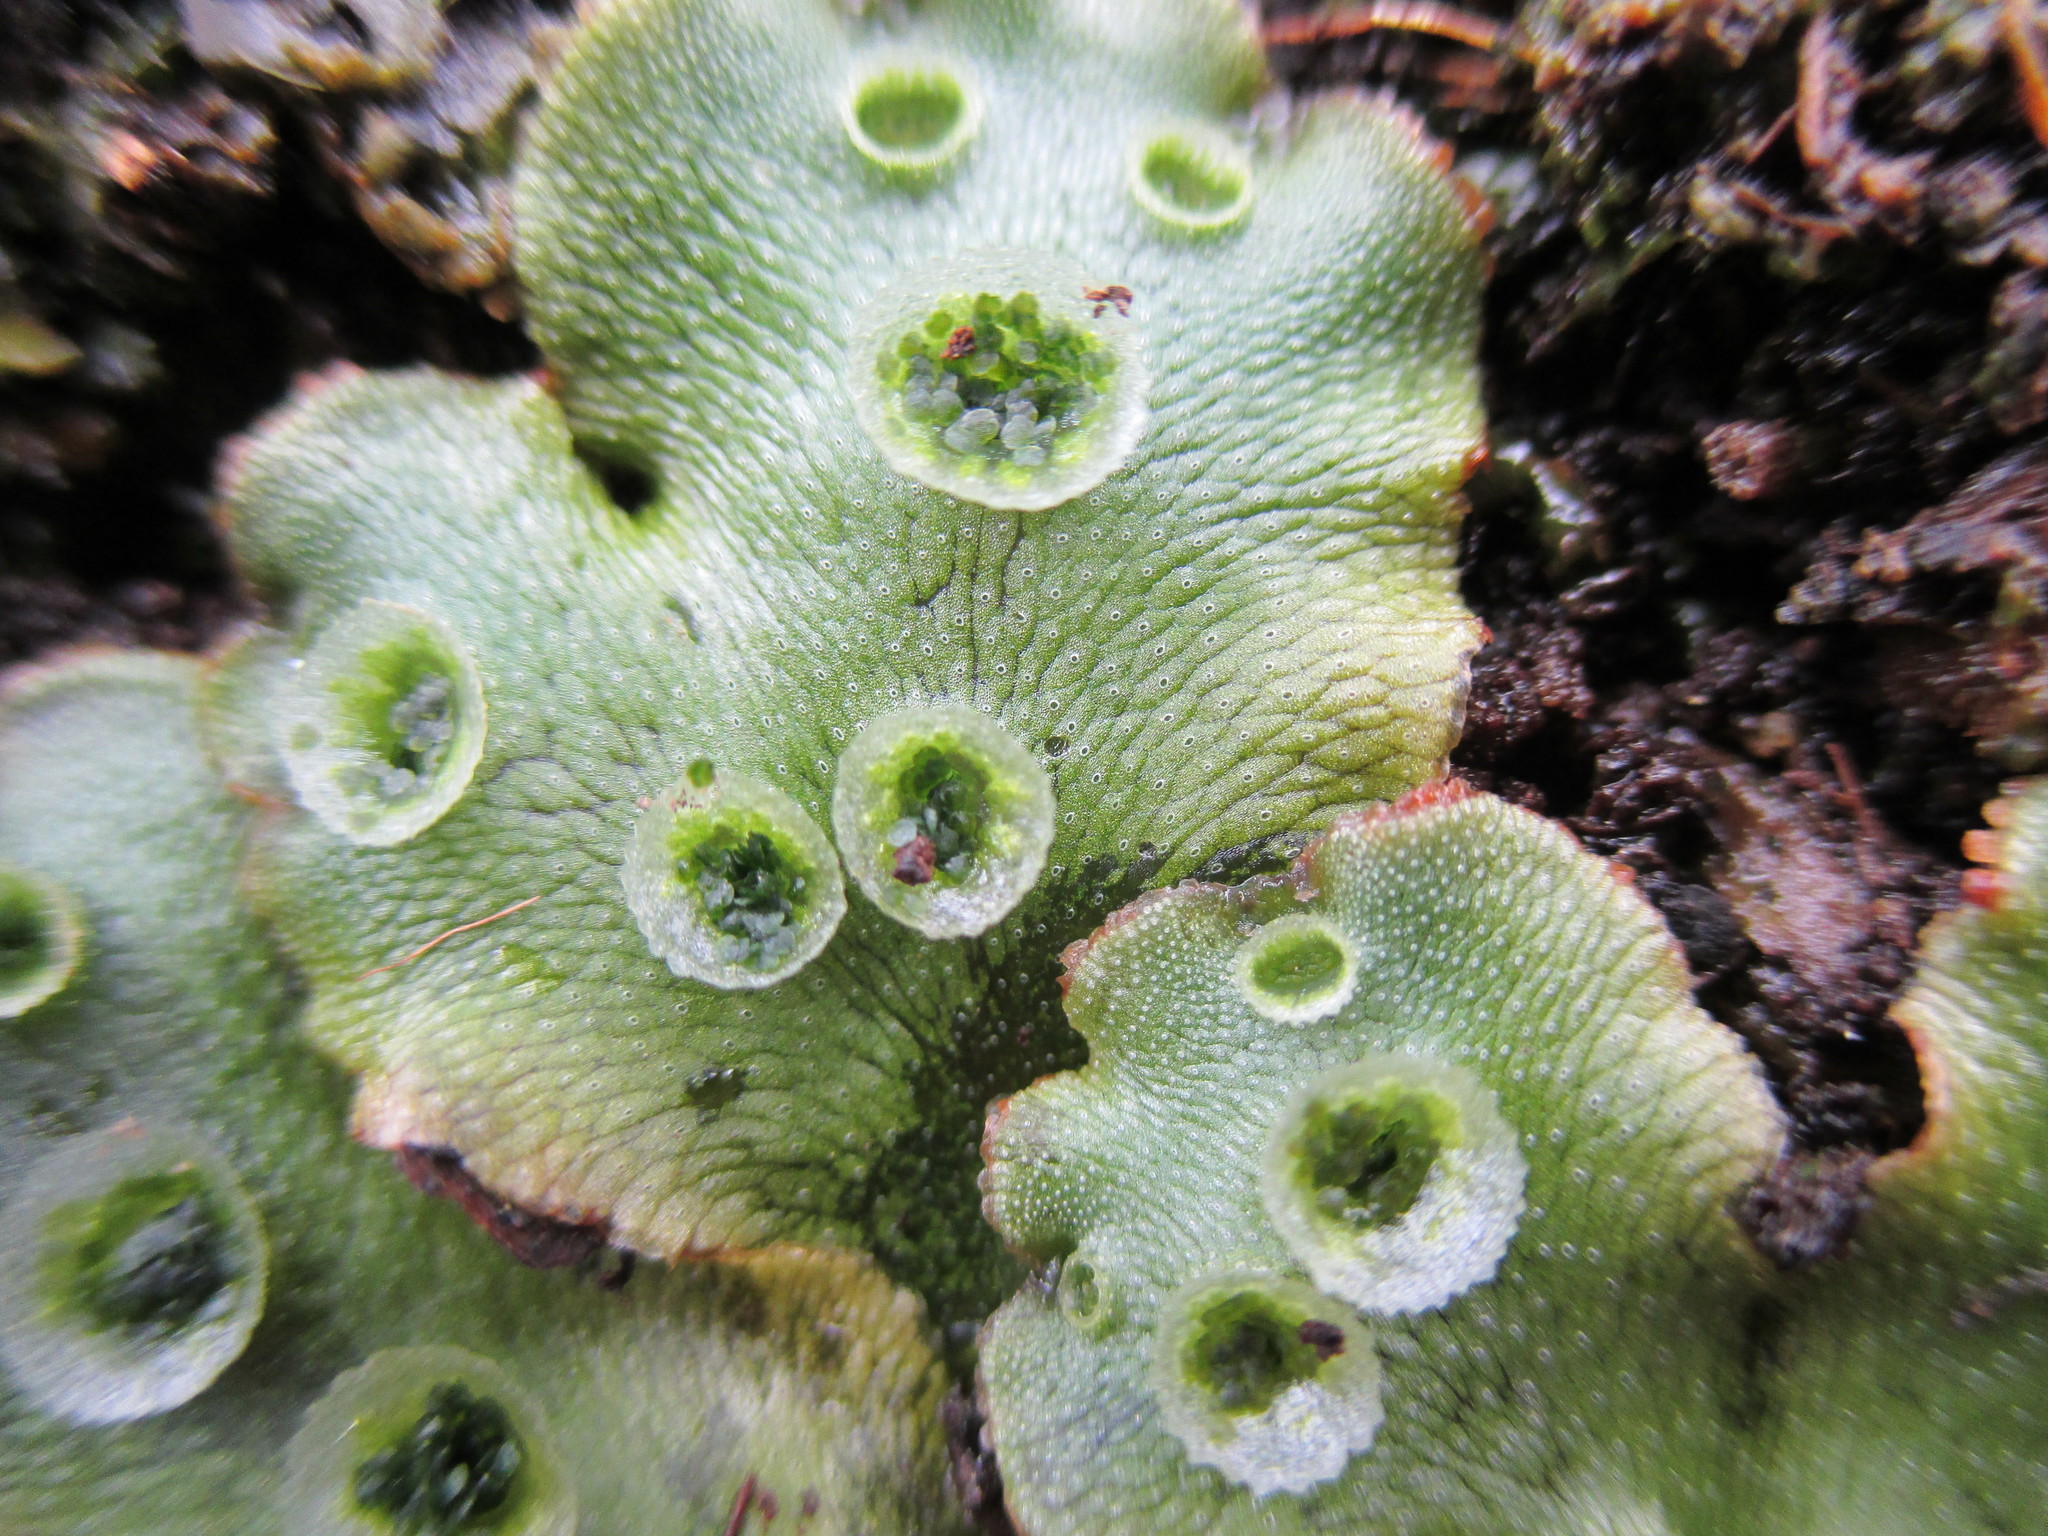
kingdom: Plantae
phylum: Marchantiophyta
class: Marchantiopsida
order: Marchantiales
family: Marchantiaceae
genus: Marchantia
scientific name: Marchantia polymorpha
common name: Common liverwort
